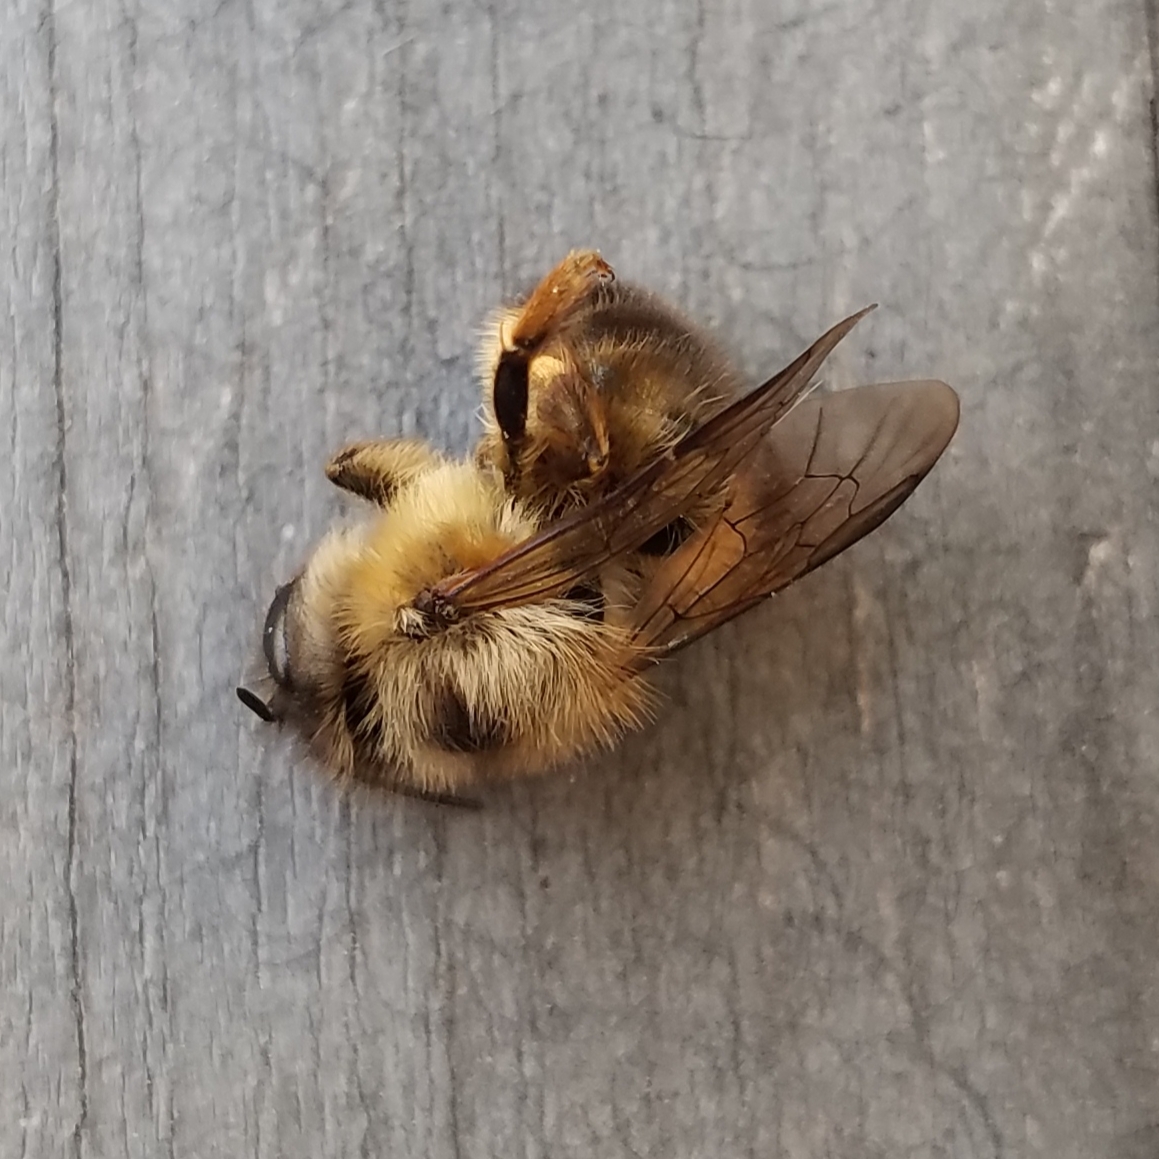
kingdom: Animalia
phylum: Arthropoda
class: Insecta
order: Hymenoptera
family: Megachilidae
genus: Osmia
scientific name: Osmia taurus
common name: Taurus mason bee
